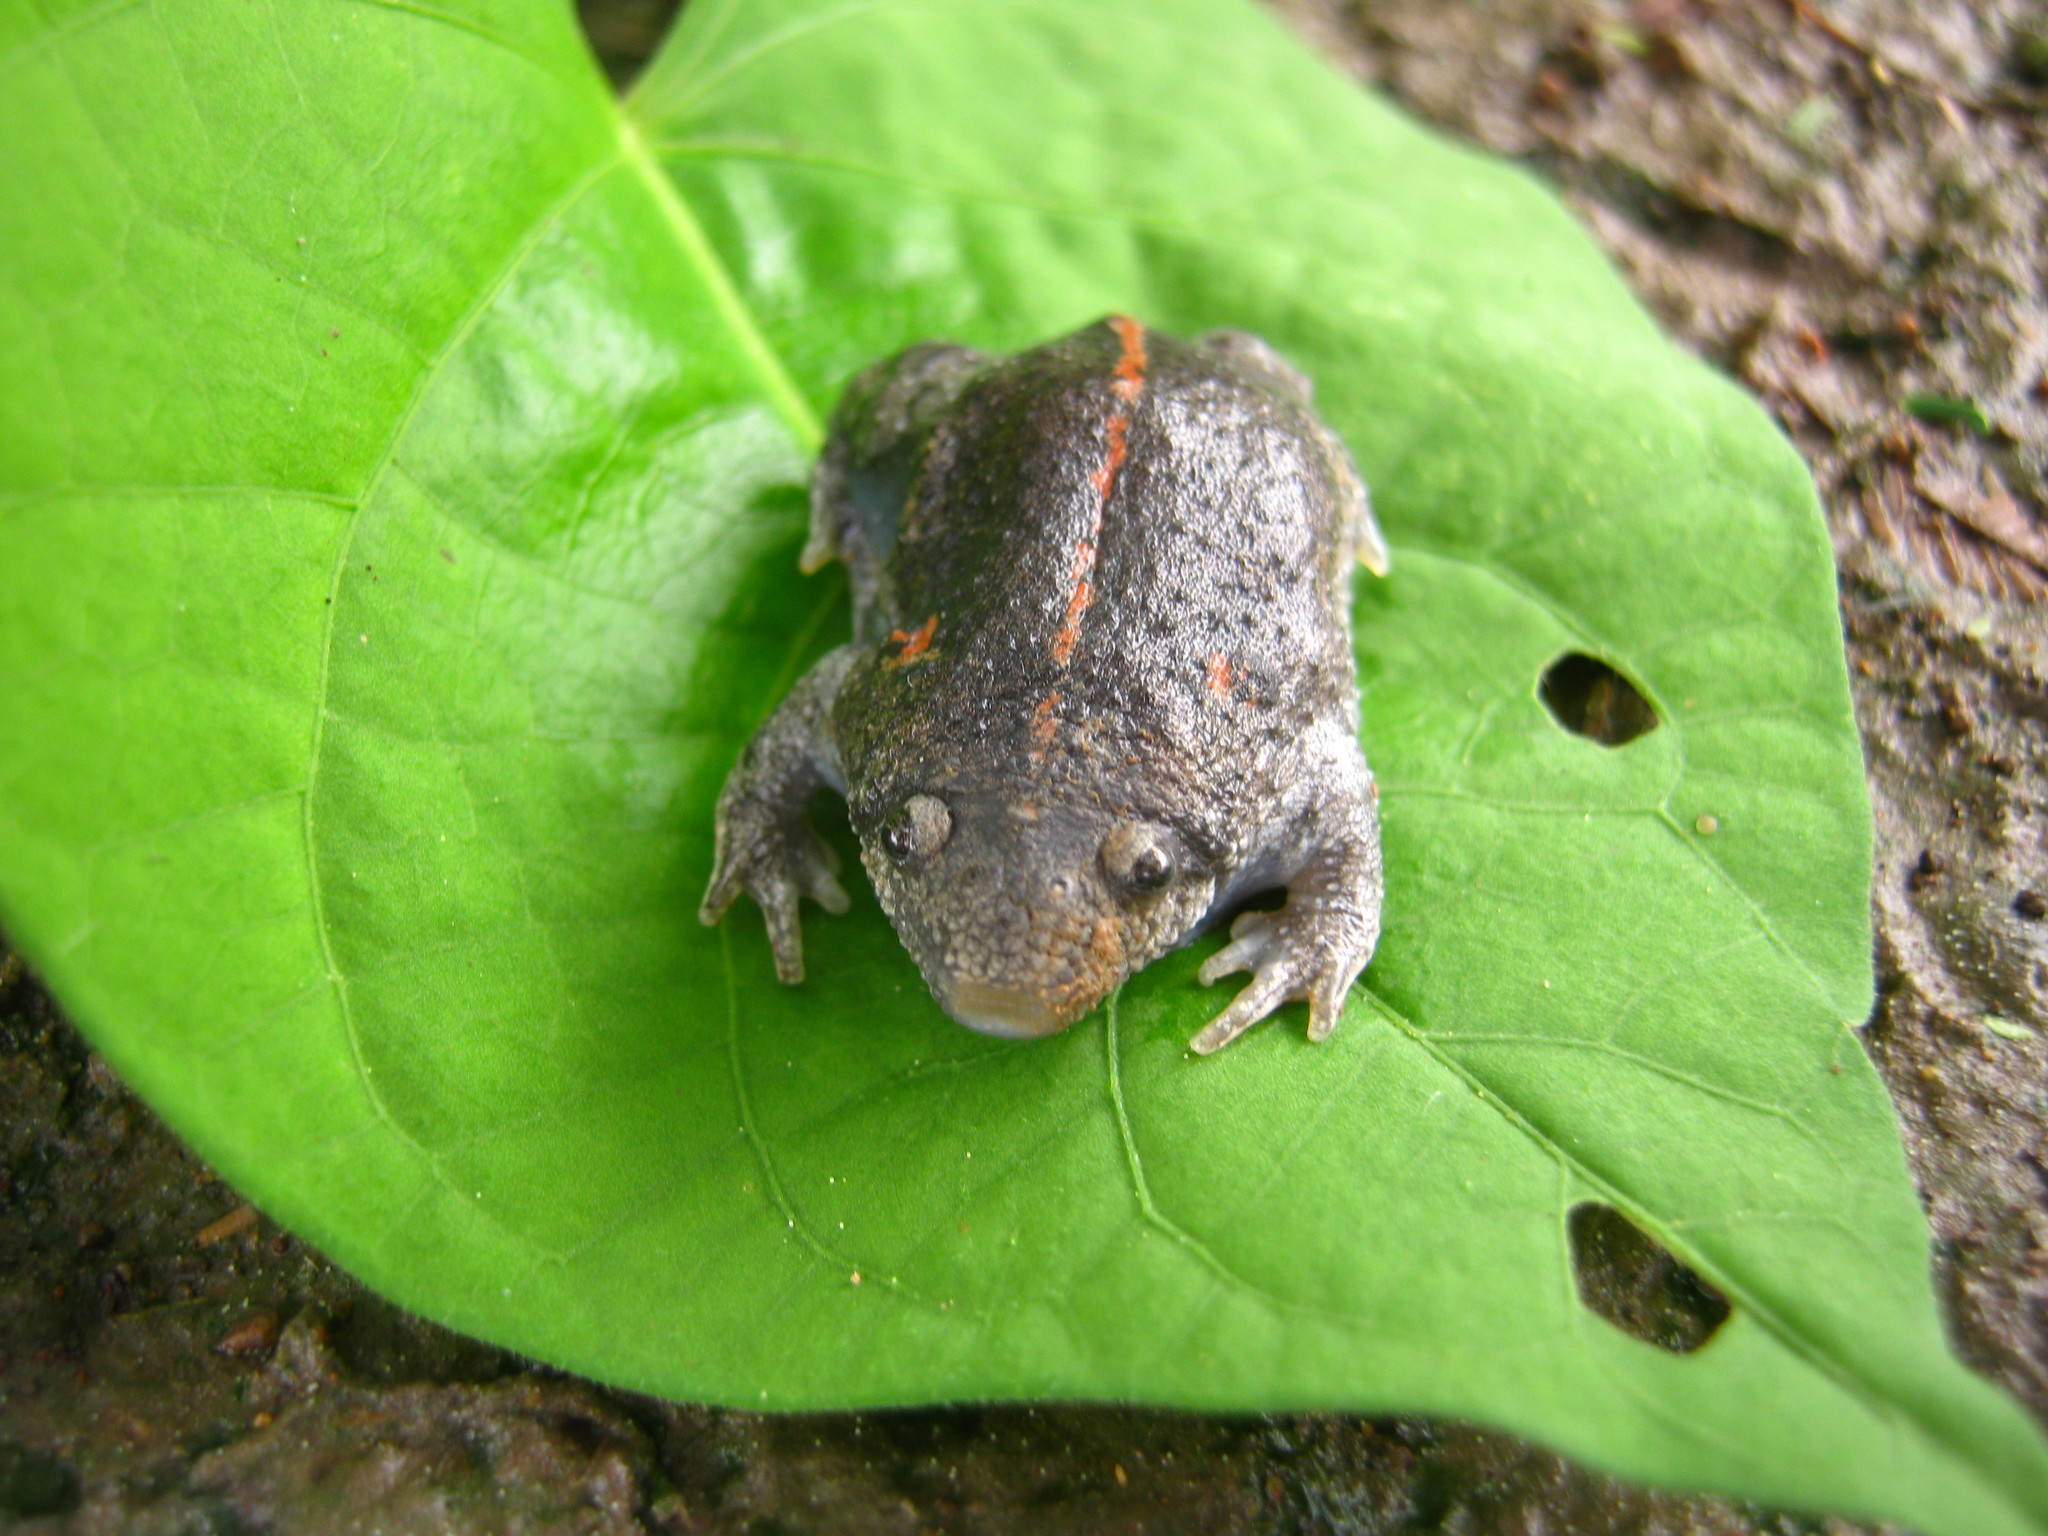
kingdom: Animalia
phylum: Chordata
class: Amphibia
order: Anura
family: Rhinophrynidae
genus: Rhinophrynus
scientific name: Rhinophrynus dorsalis
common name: Mexican burrowing toad
